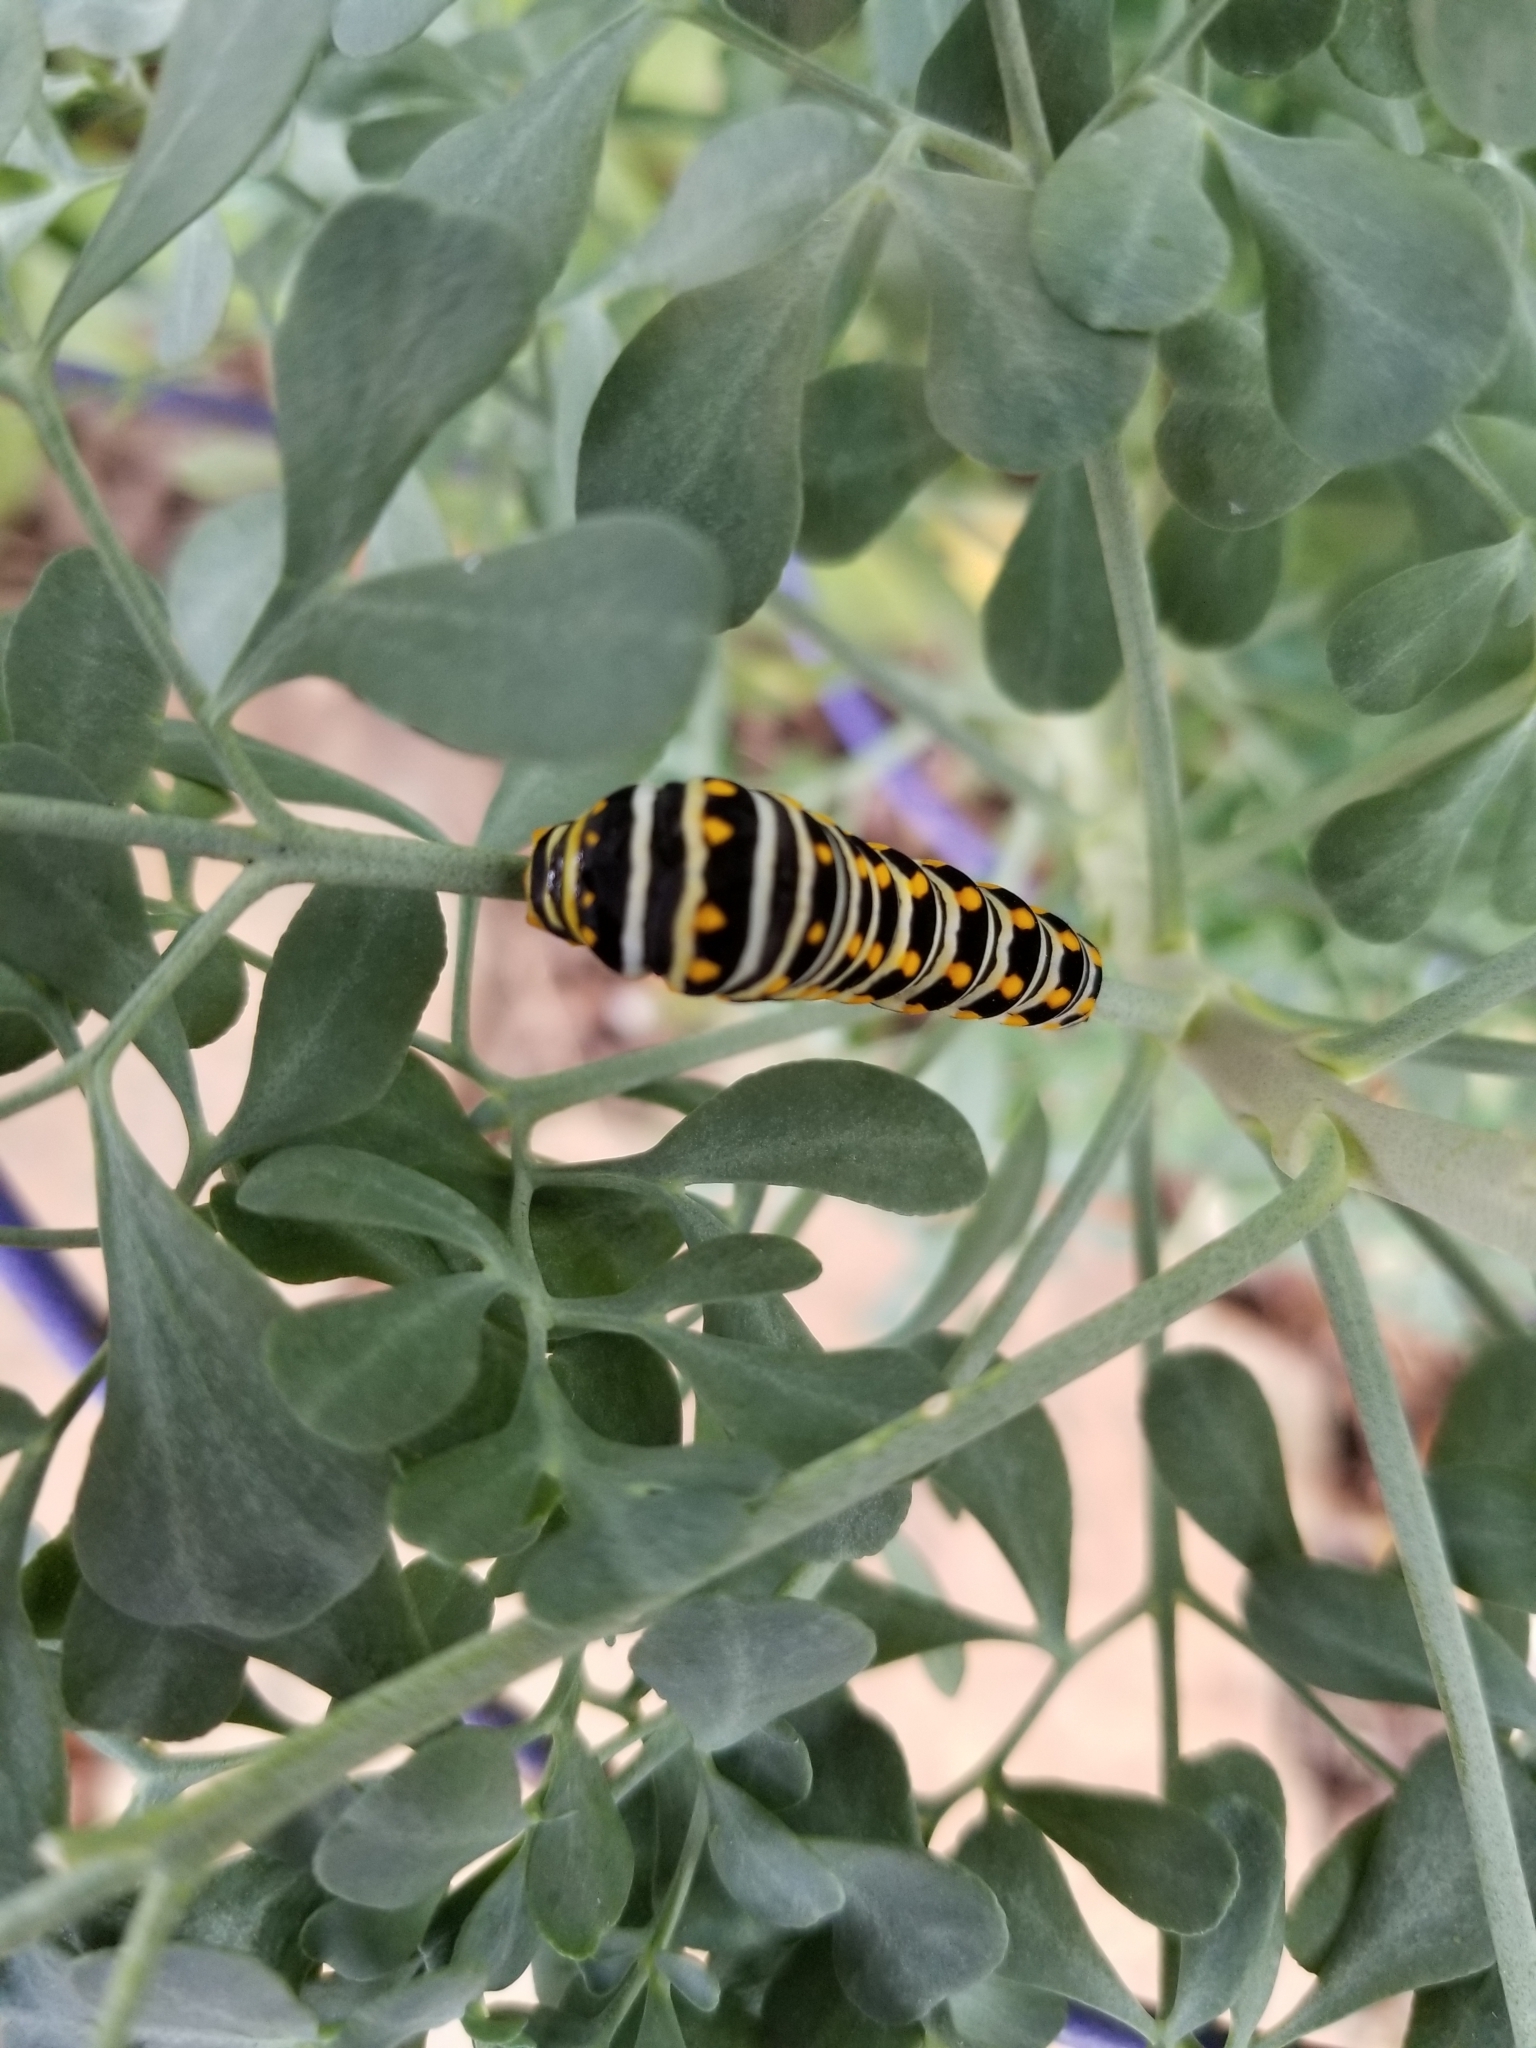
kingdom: Animalia
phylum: Arthropoda
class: Insecta
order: Lepidoptera
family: Papilionidae
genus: Papilio
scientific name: Papilio polyxenes
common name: Black swallowtail
